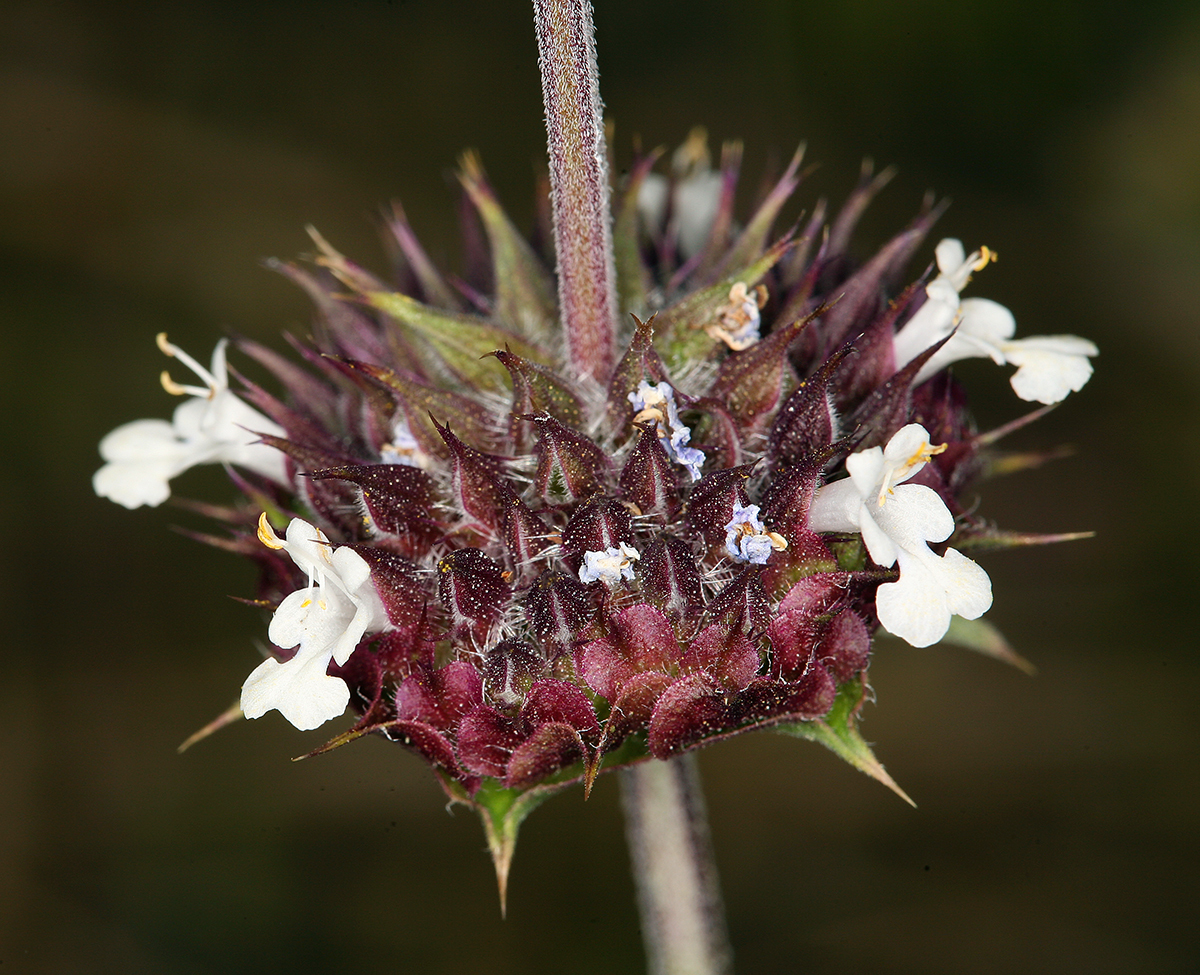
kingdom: Plantae
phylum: Tracheophyta
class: Magnoliopsida
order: Lamiales
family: Lamiaceae
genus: Salvia
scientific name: Salvia columbariae
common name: Chia
